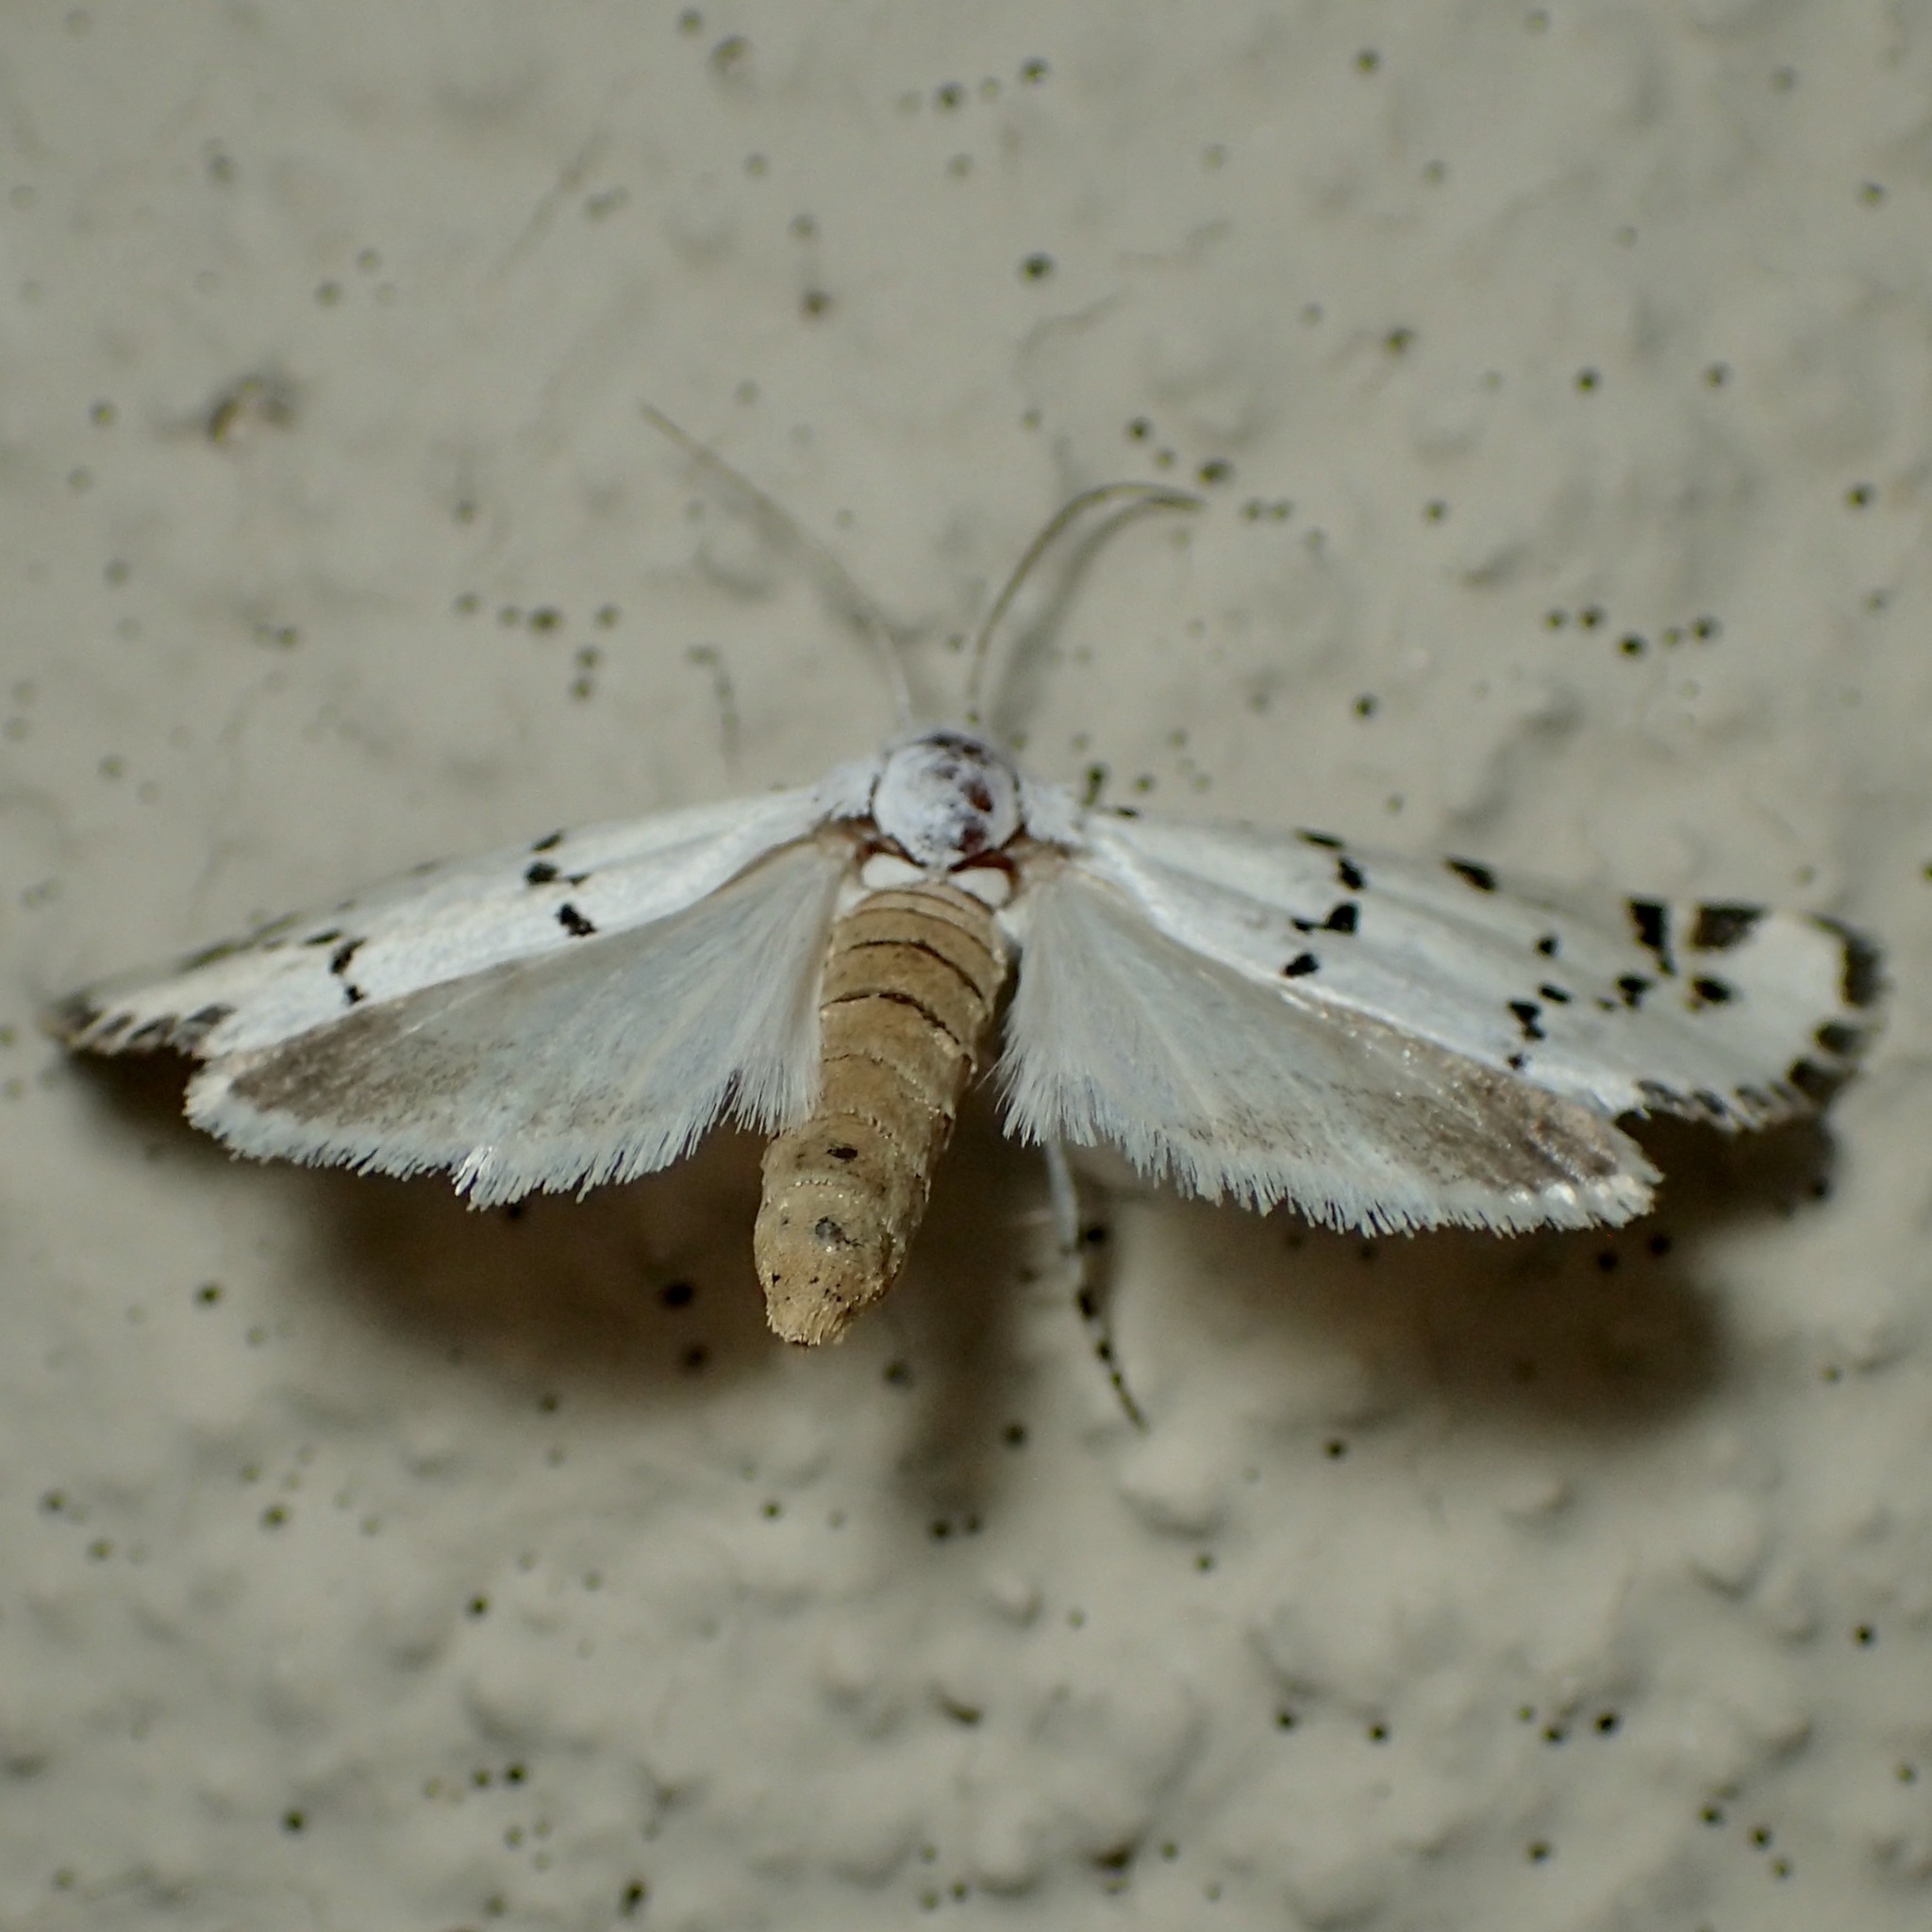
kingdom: Animalia
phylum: Arthropoda
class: Insecta
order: Lepidoptera
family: Noctuidae
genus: Grotella
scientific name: Grotella binda
